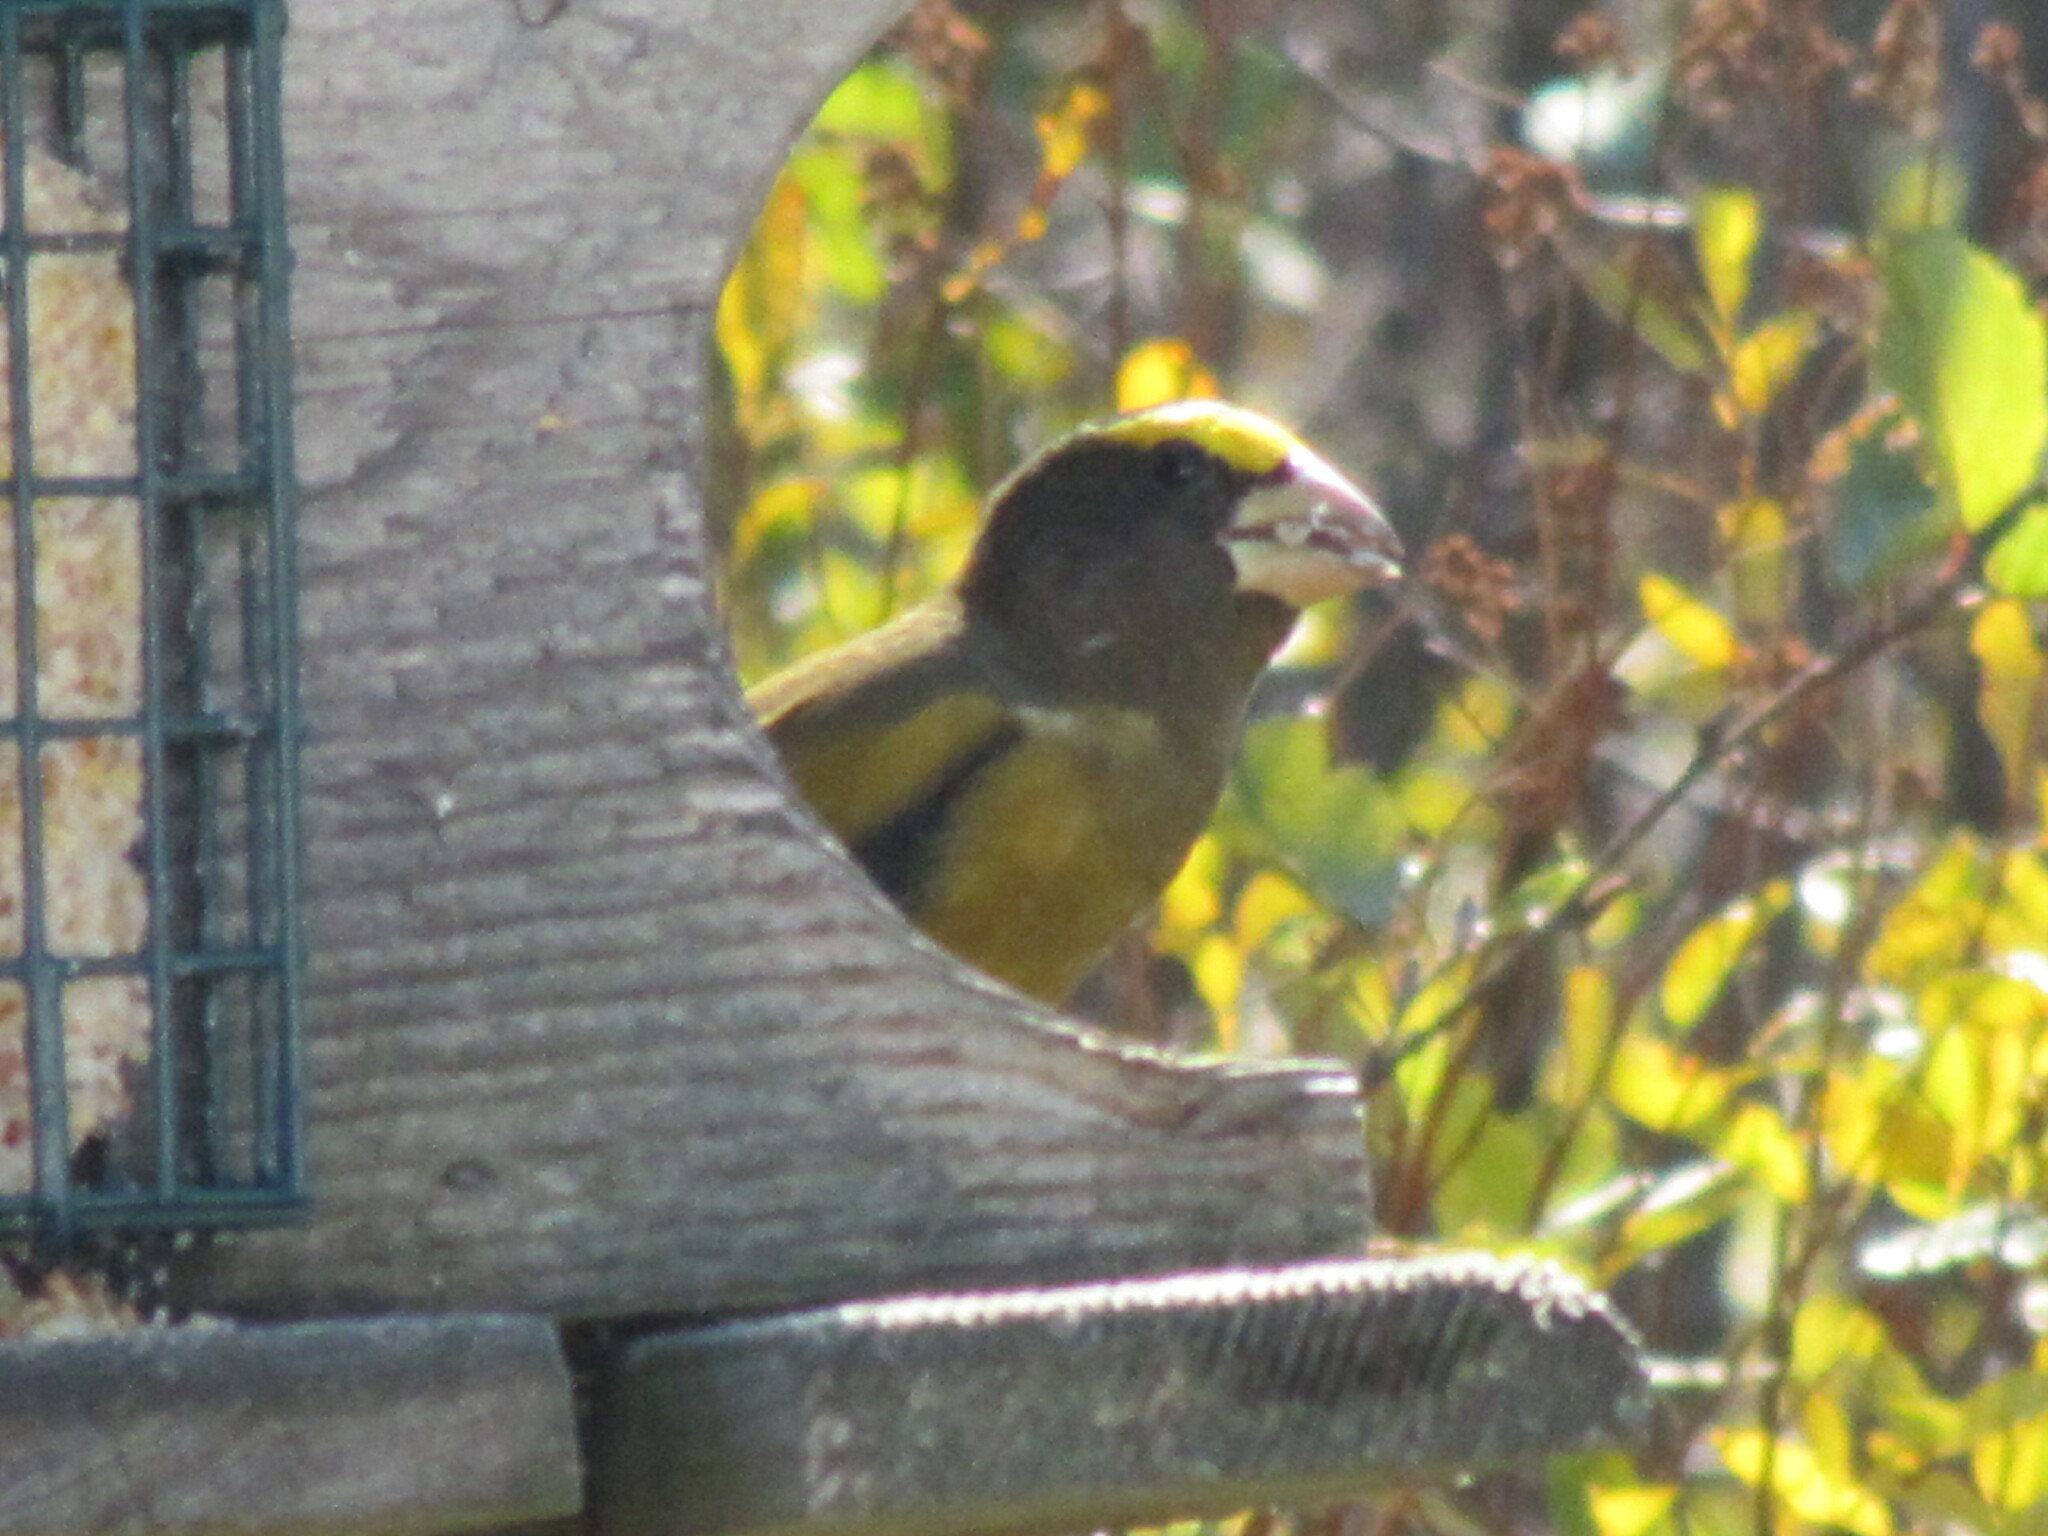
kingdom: Animalia
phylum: Chordata
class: Aves
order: Passeriformes
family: Fringillidae
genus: Hesperiphona
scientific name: Hesperiphona vespertina
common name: Evening grosbeak
